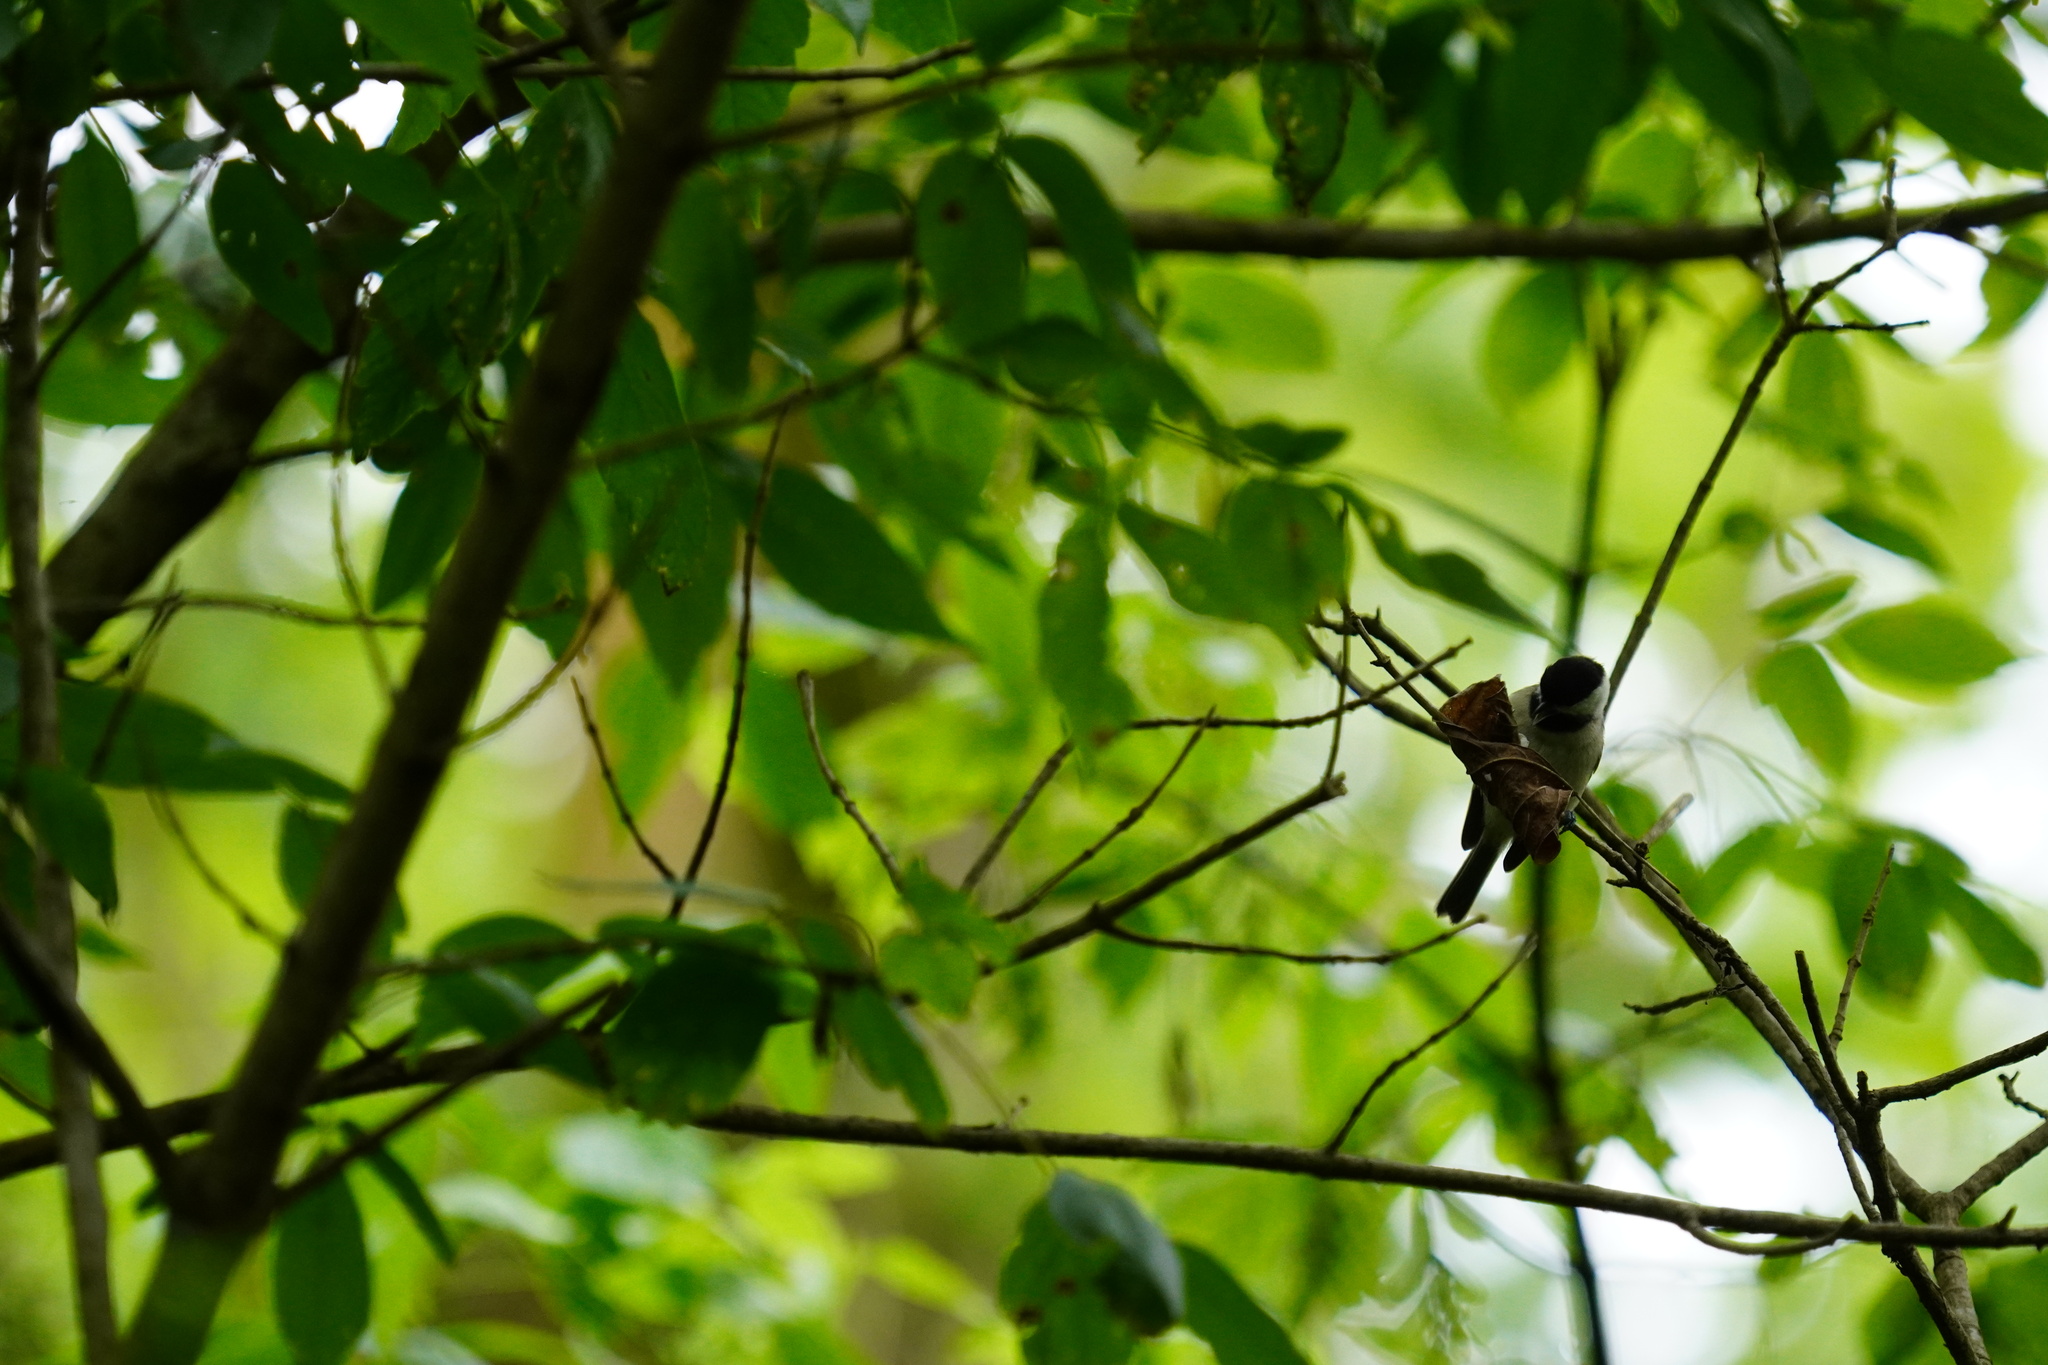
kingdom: Animalia
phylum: Chordata
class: Aves
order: Passeriformes
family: Paridae
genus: Poecile
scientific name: Poecile carolinensis
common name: Carolina chickadee
